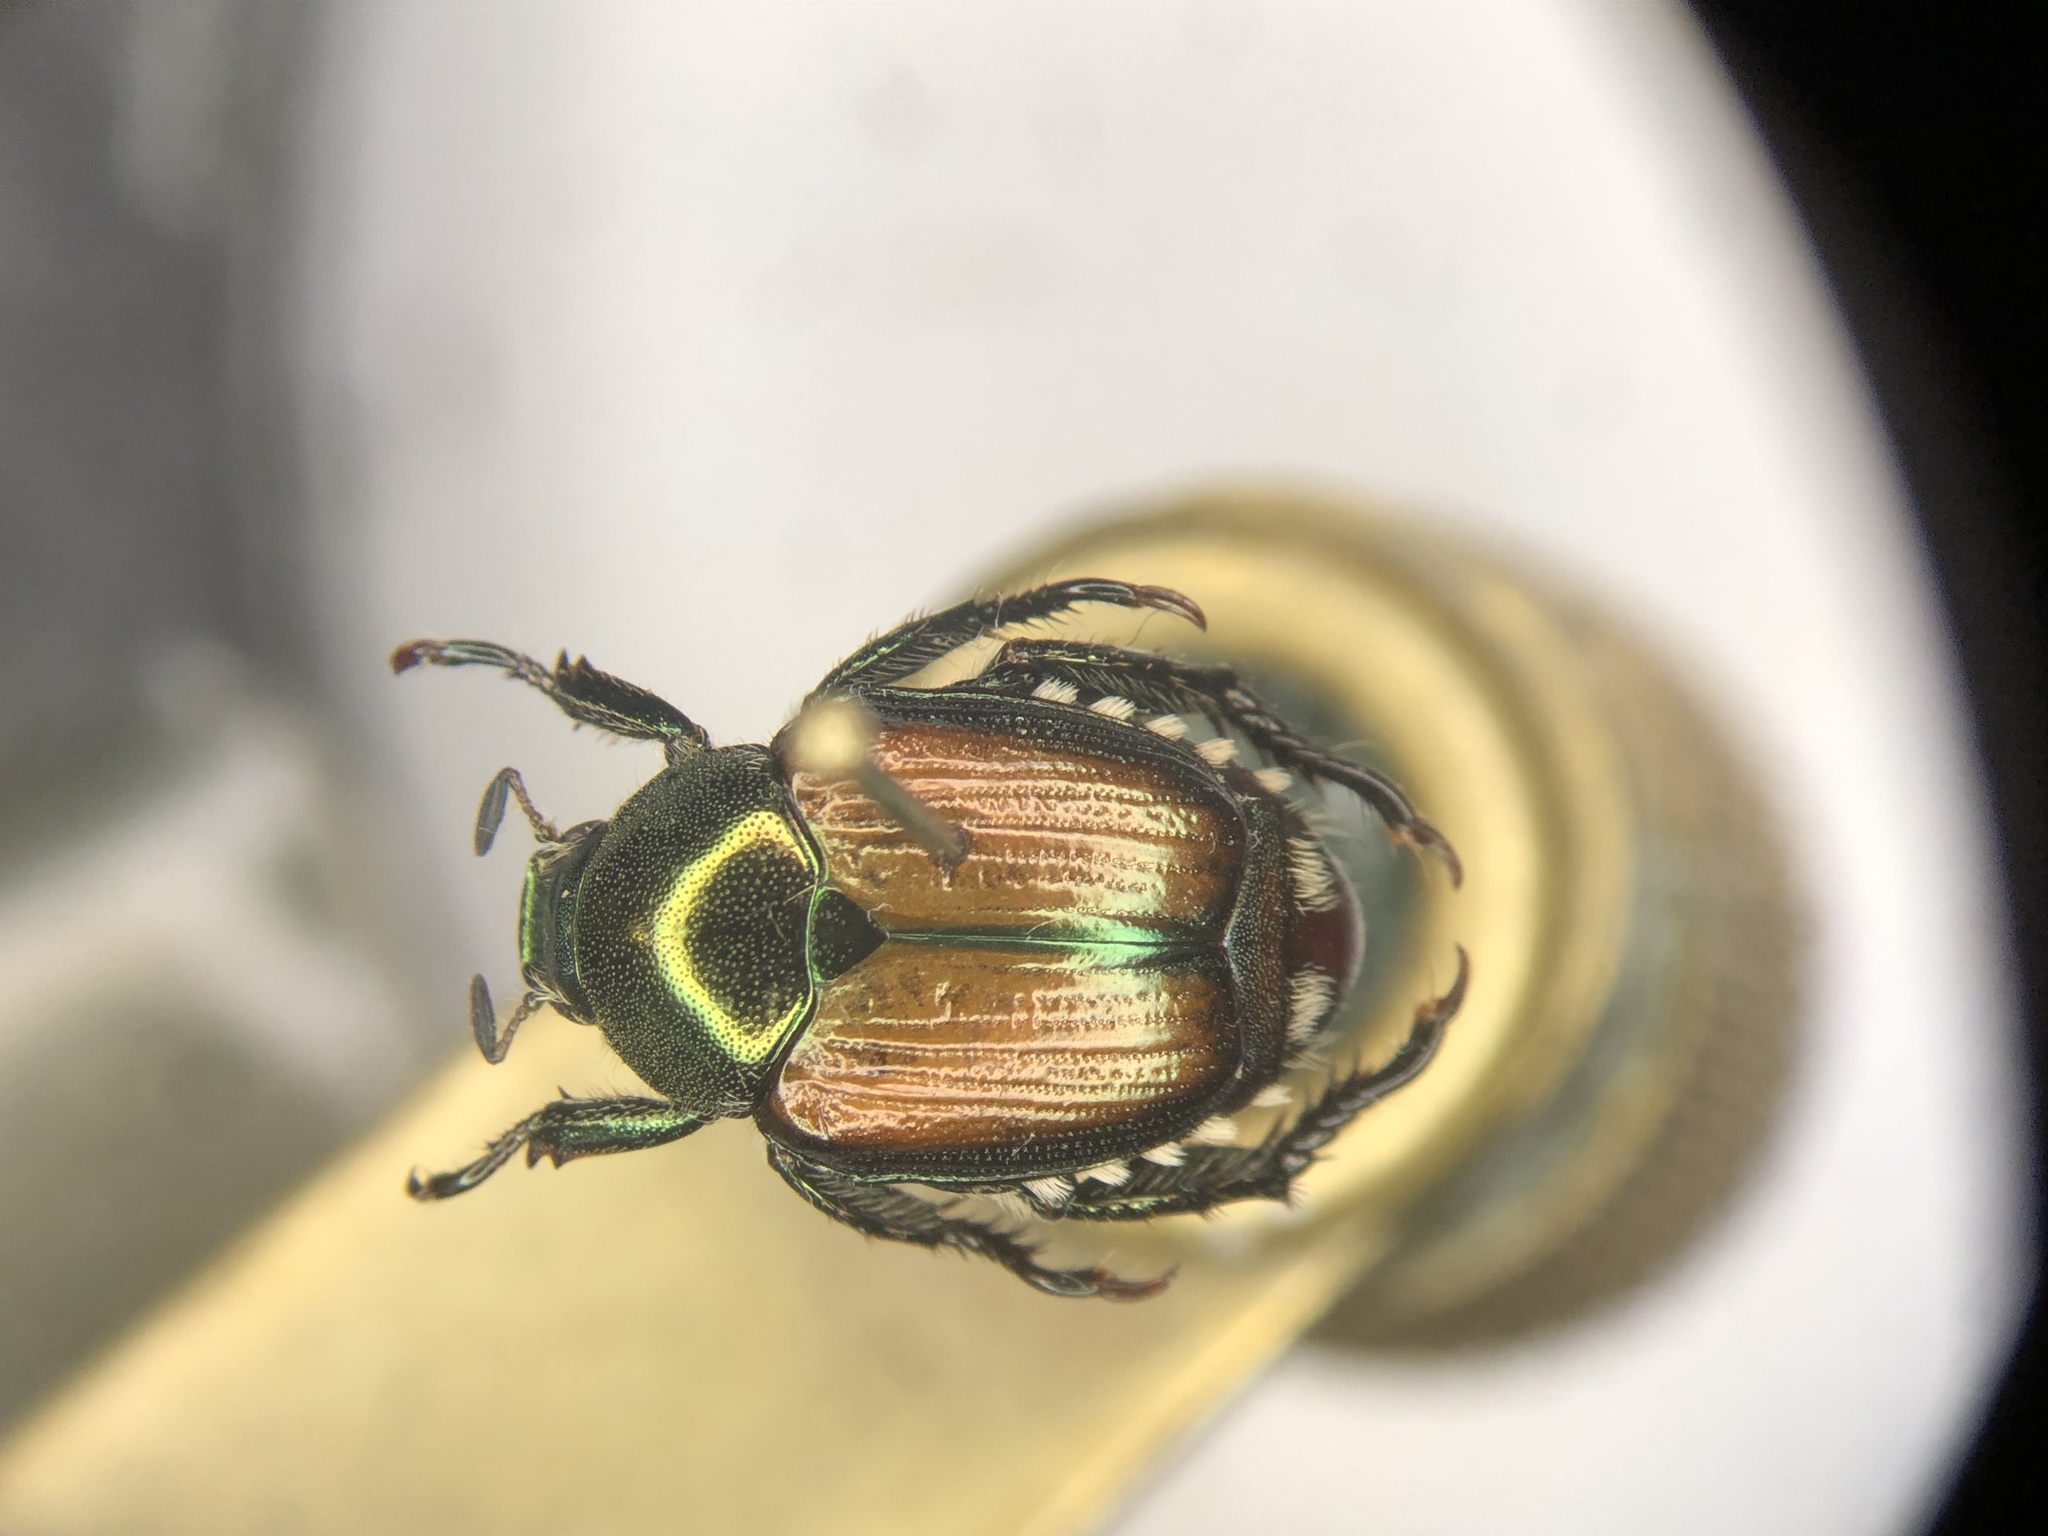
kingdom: Animalia
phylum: Arthropoda
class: Insecta
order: Coleoptera
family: Scarabaeidae
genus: Popillia
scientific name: Popillia japonica
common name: Japanese beetle
